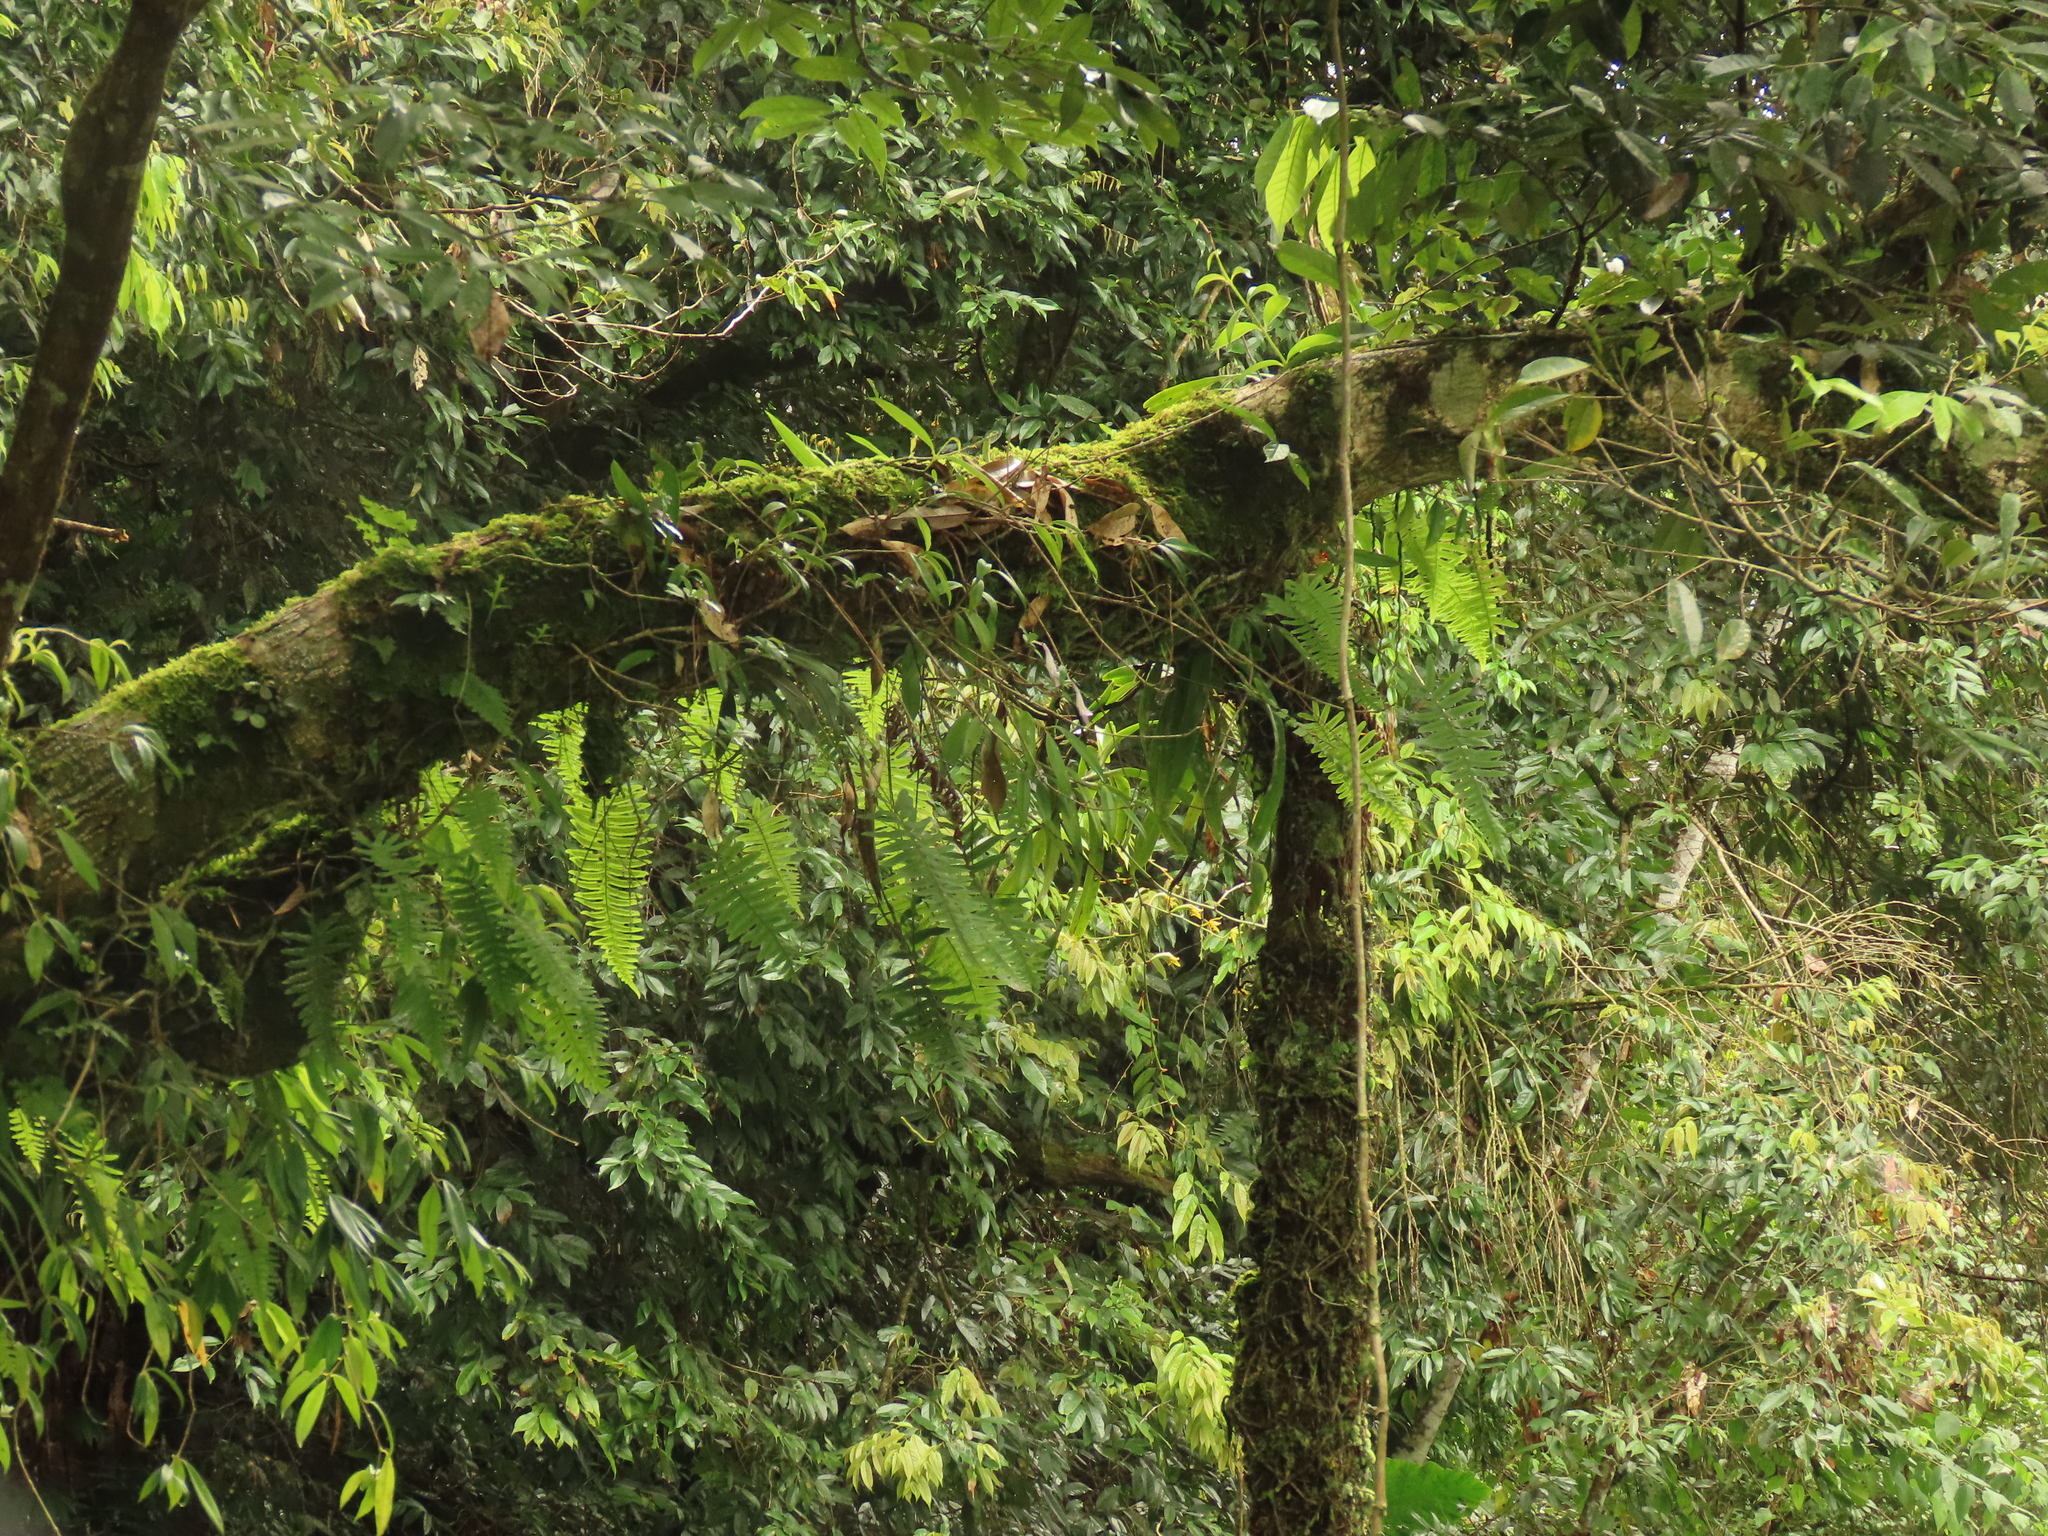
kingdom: Plantae
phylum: Tracheophyta
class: Liliopsida
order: Asparagales
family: Orchidaceae
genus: Liparis
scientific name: Liparis bootanensis
